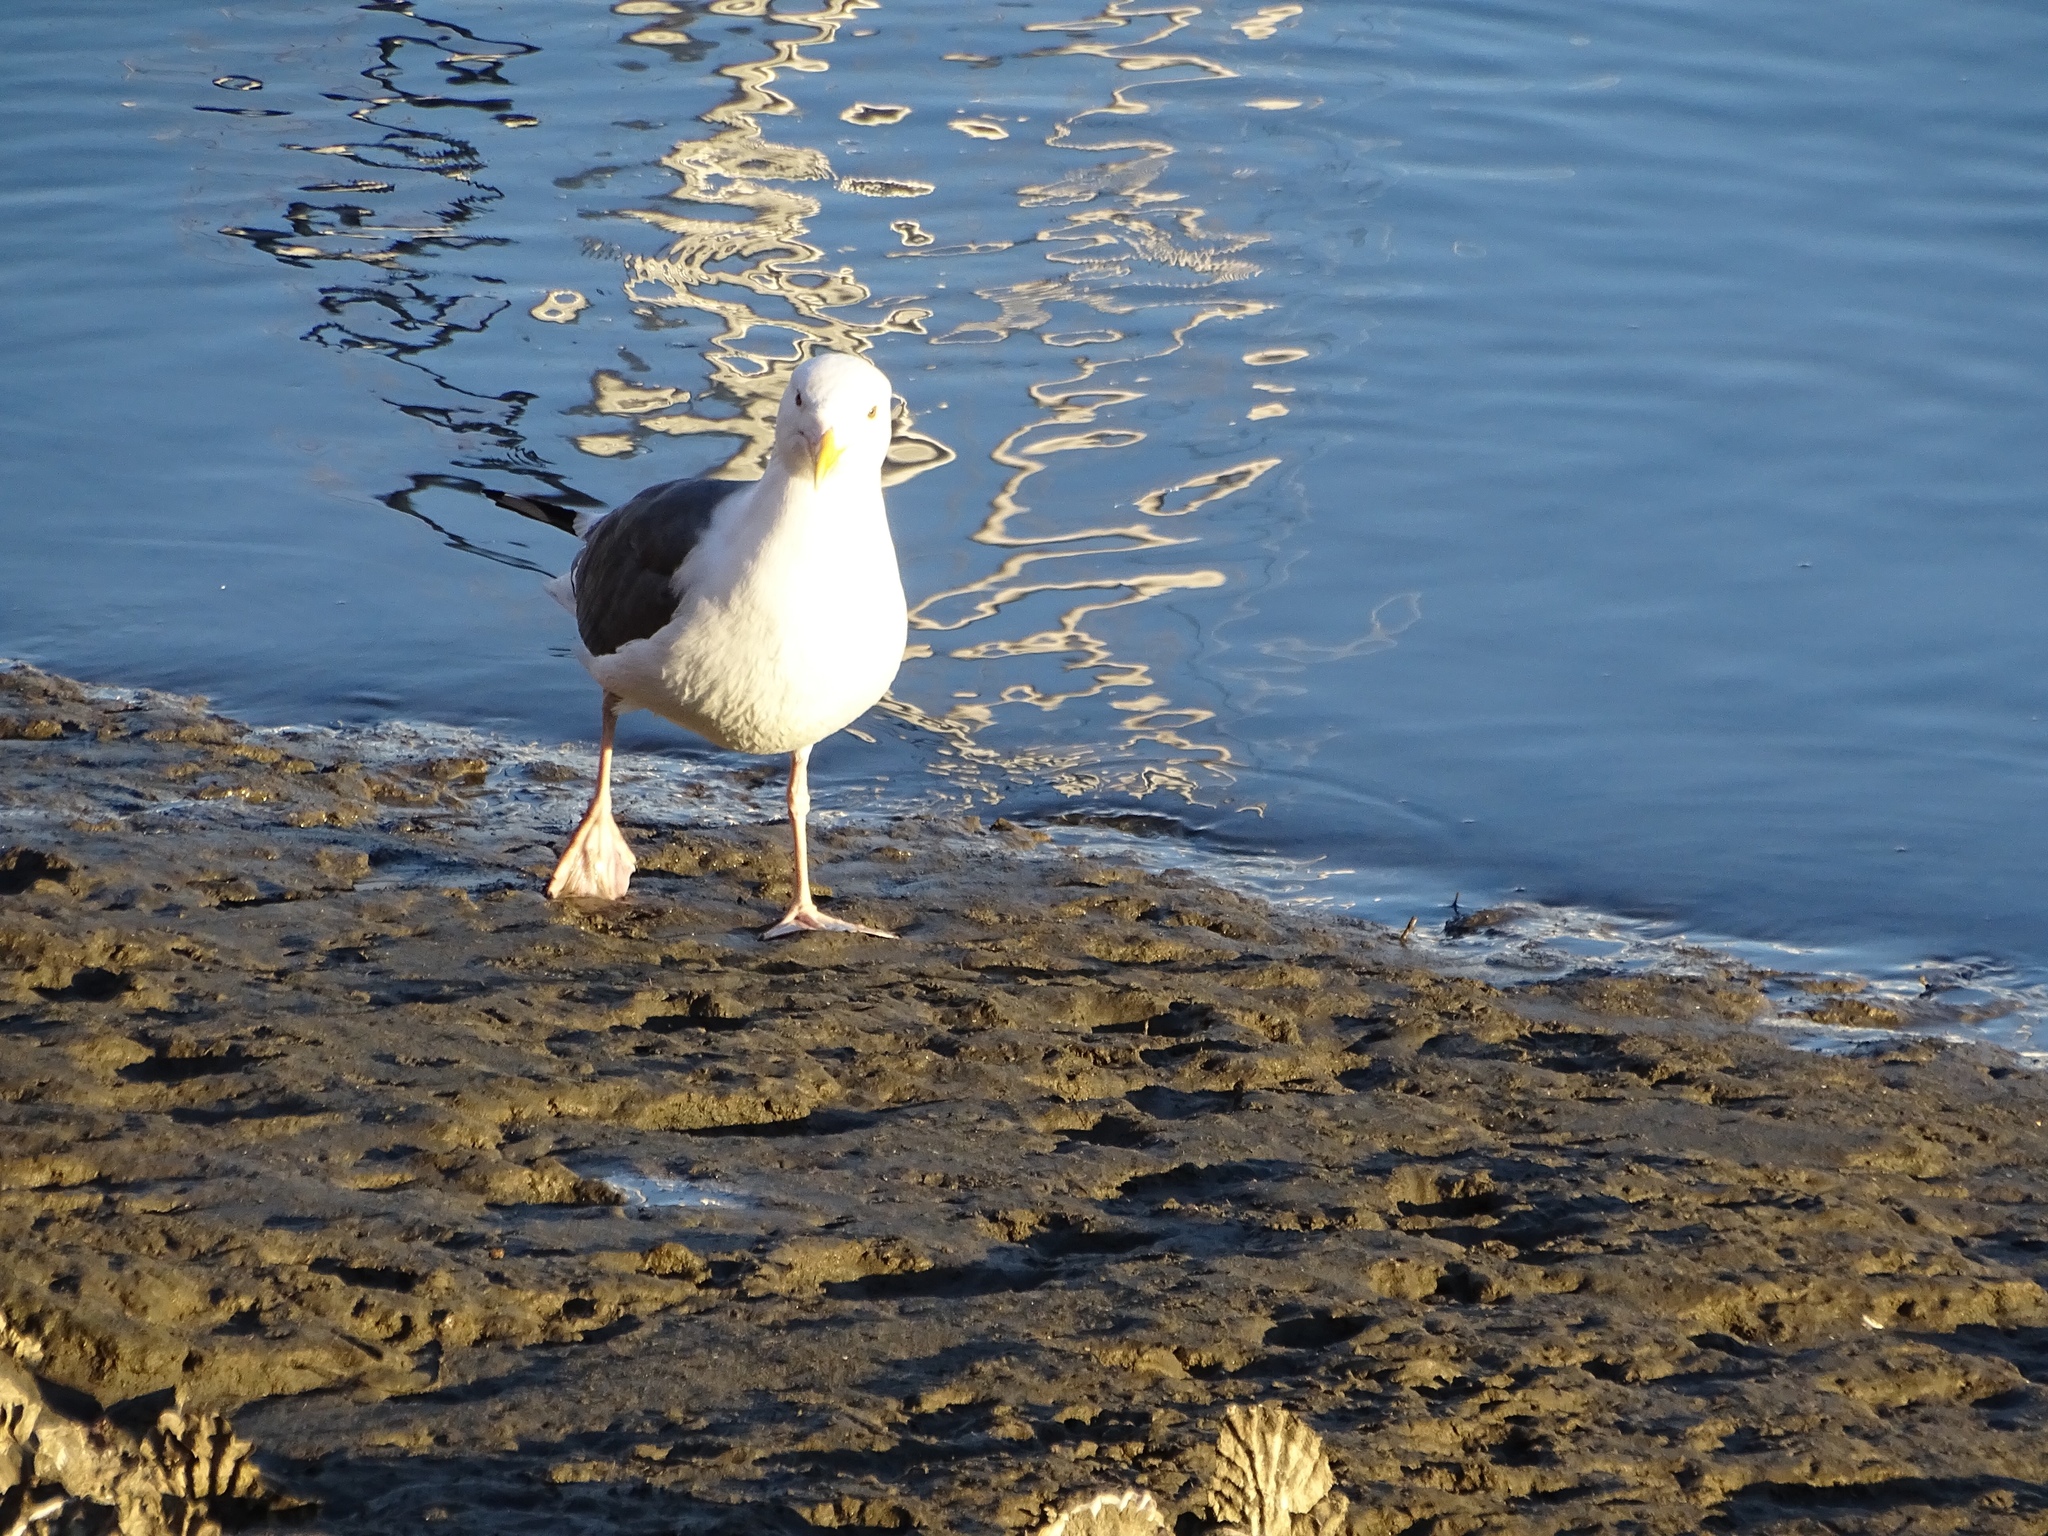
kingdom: Animalia
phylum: Chordata
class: Aves
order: Charadriiformes
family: Laridae
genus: Larus
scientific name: Larus occidentalis
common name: Western gull
